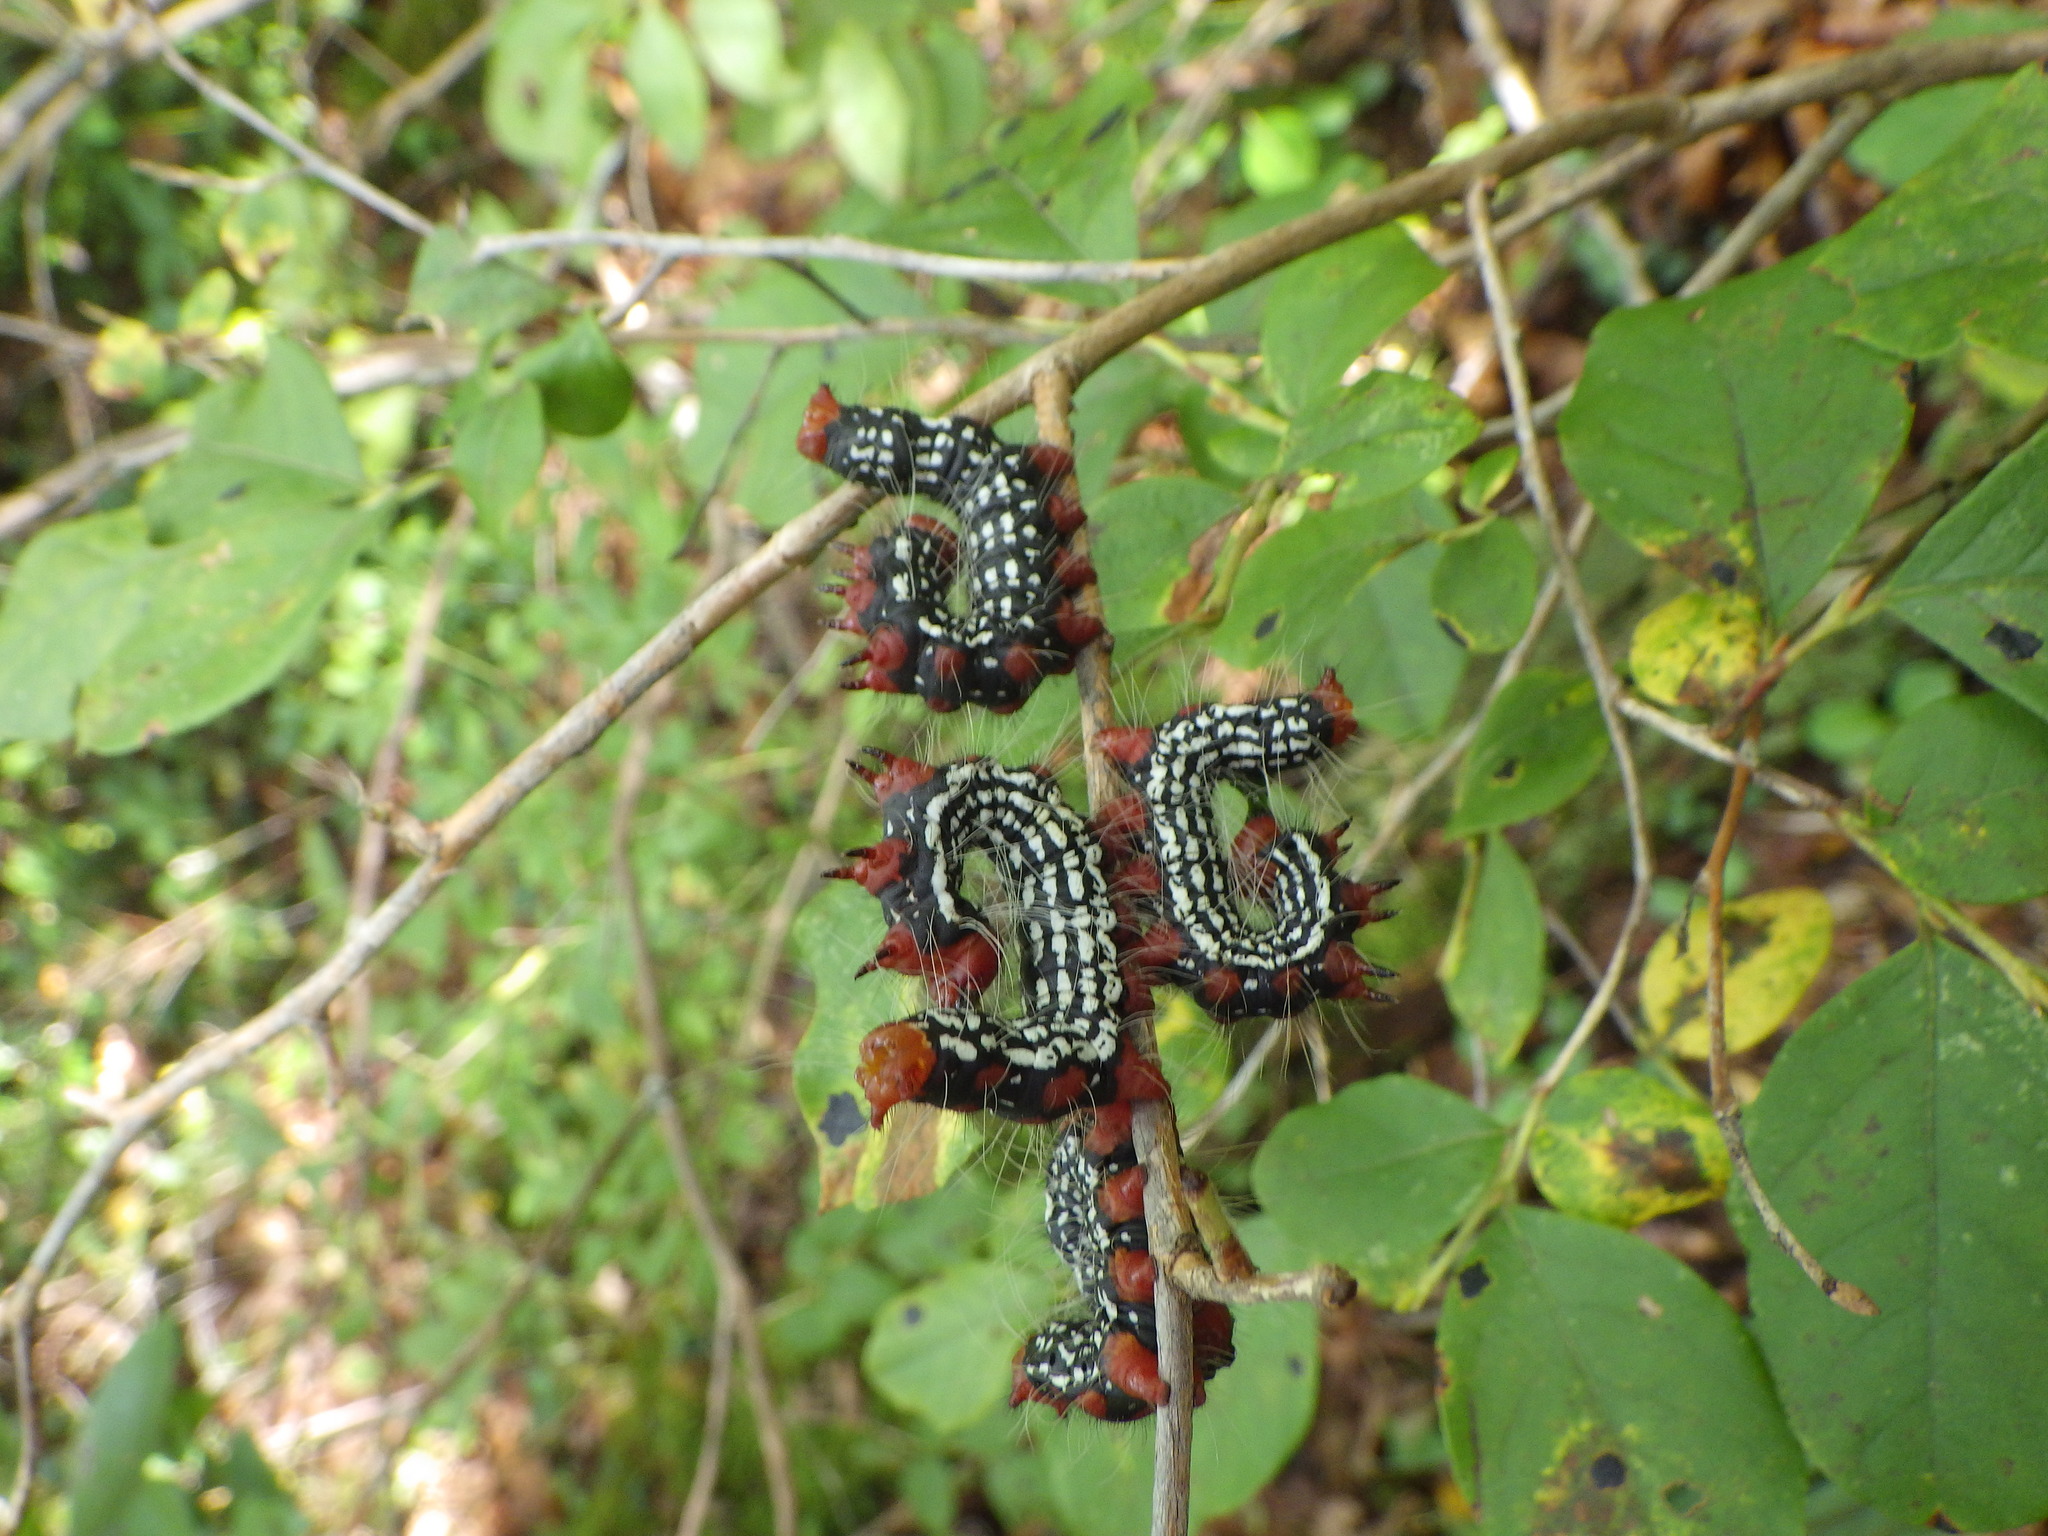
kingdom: Animalia
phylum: Arthropoda
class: Insecta
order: Lepidoptera
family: Notodontidae
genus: Datana
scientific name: Datana major
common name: Azalea caterpillar
